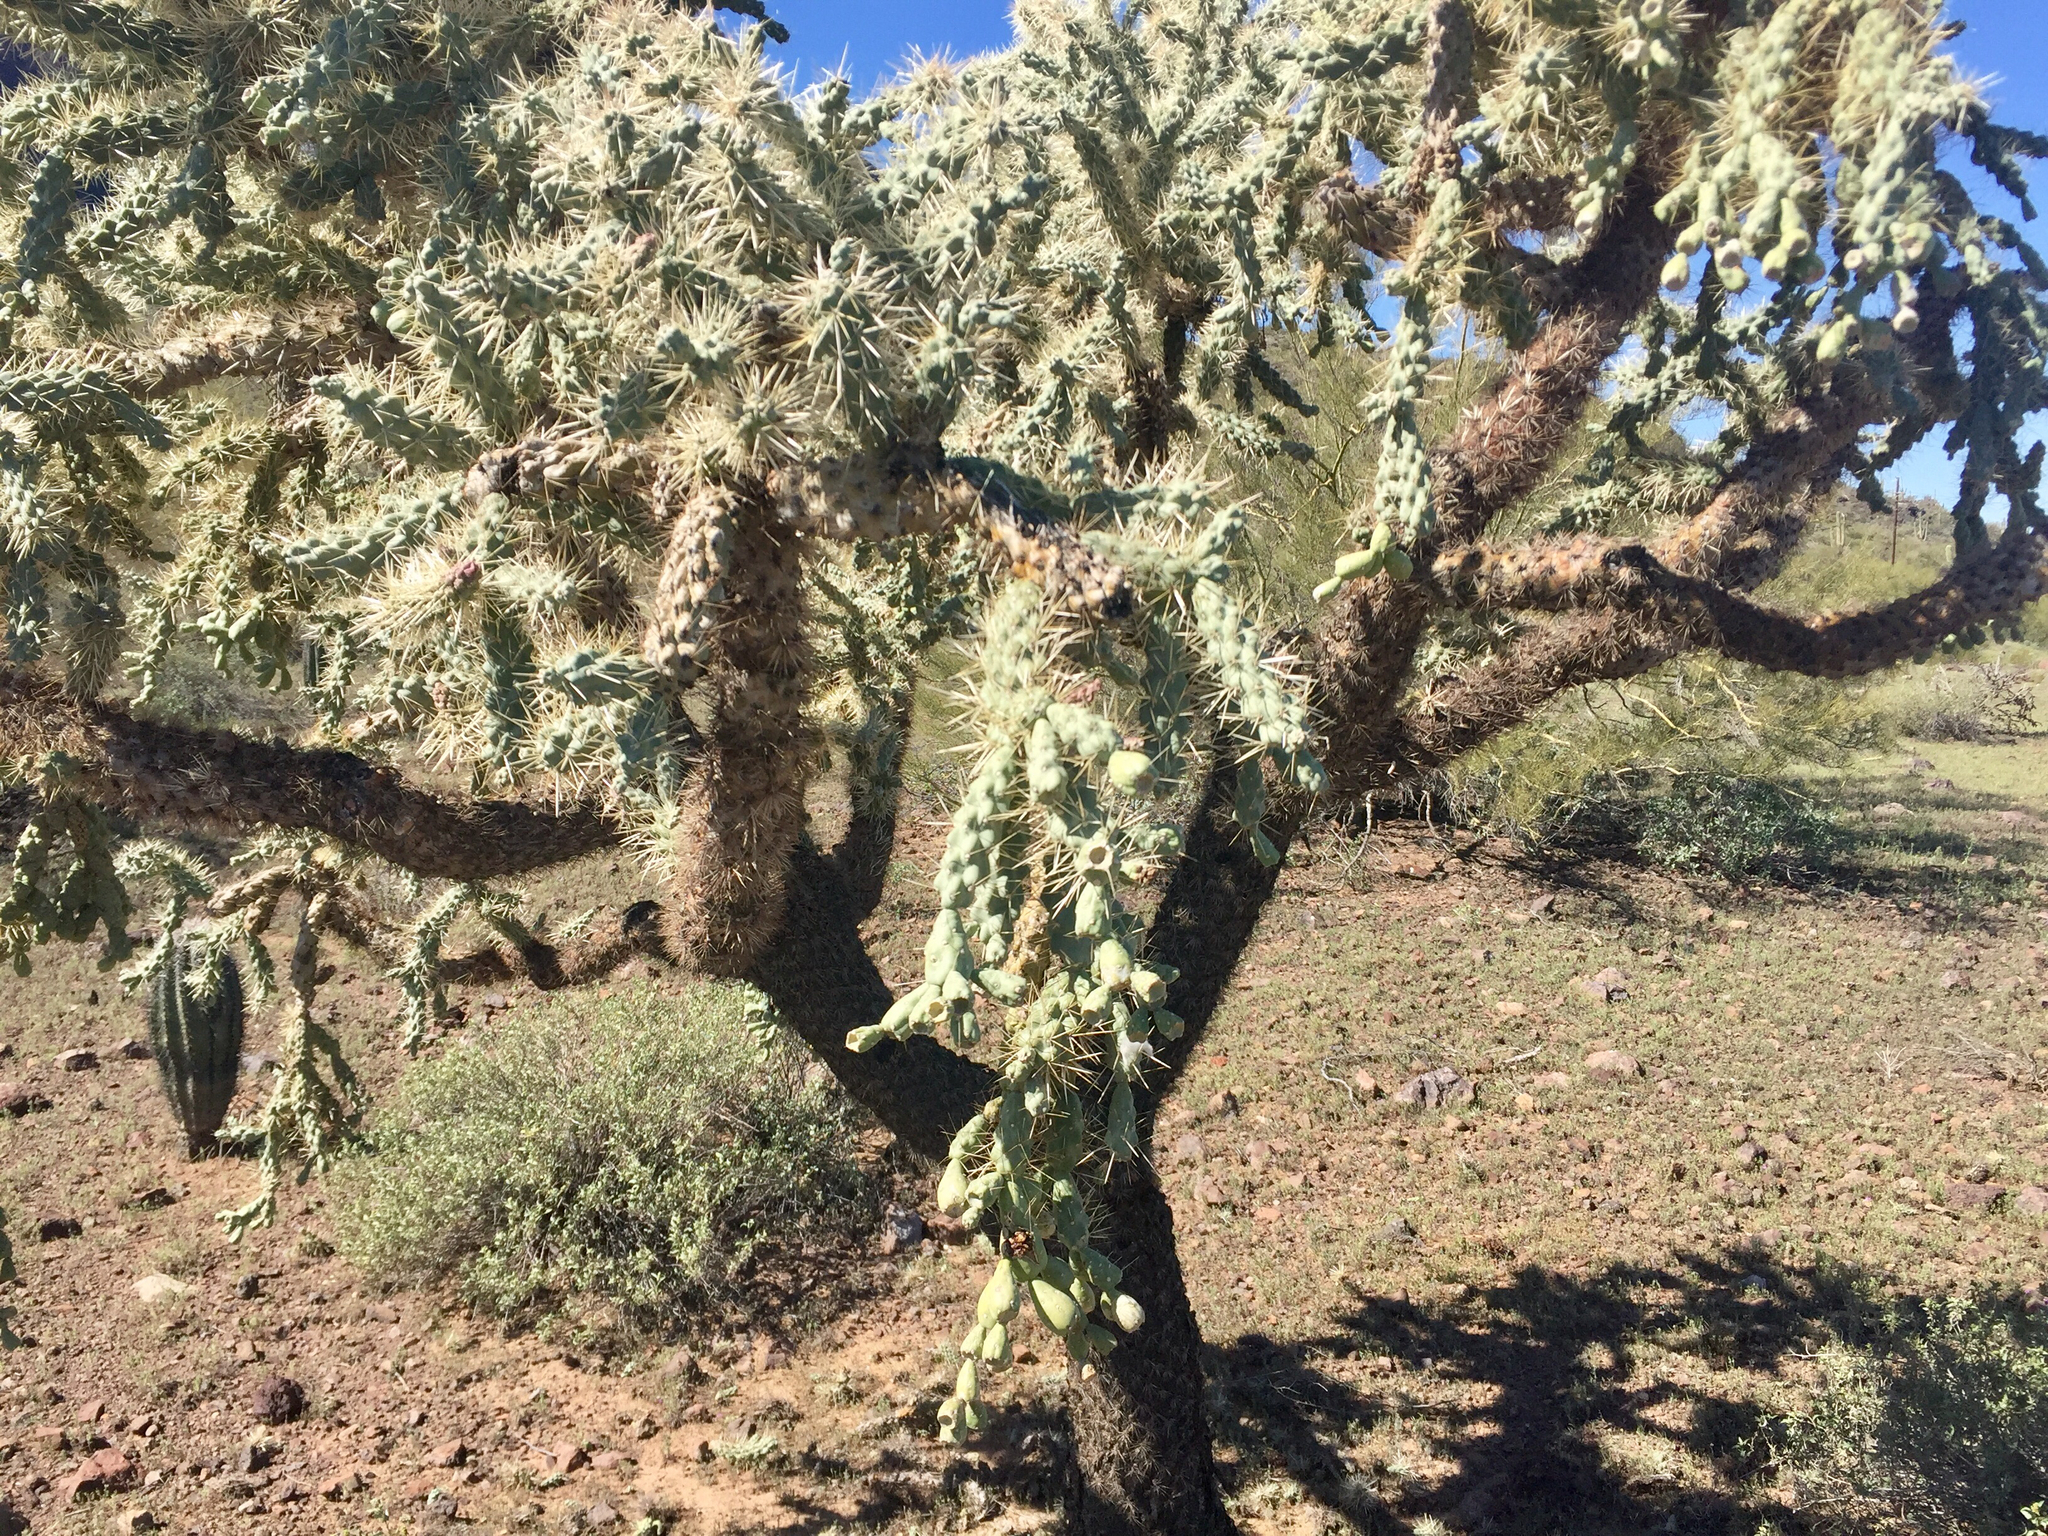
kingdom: Plantae
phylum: Tracheophyta
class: Magnoliopsida
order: Caryophyllales
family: Cactaceae
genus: Cylindropuntia
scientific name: Cylindropuntia fulgida
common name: Jumping cholla
